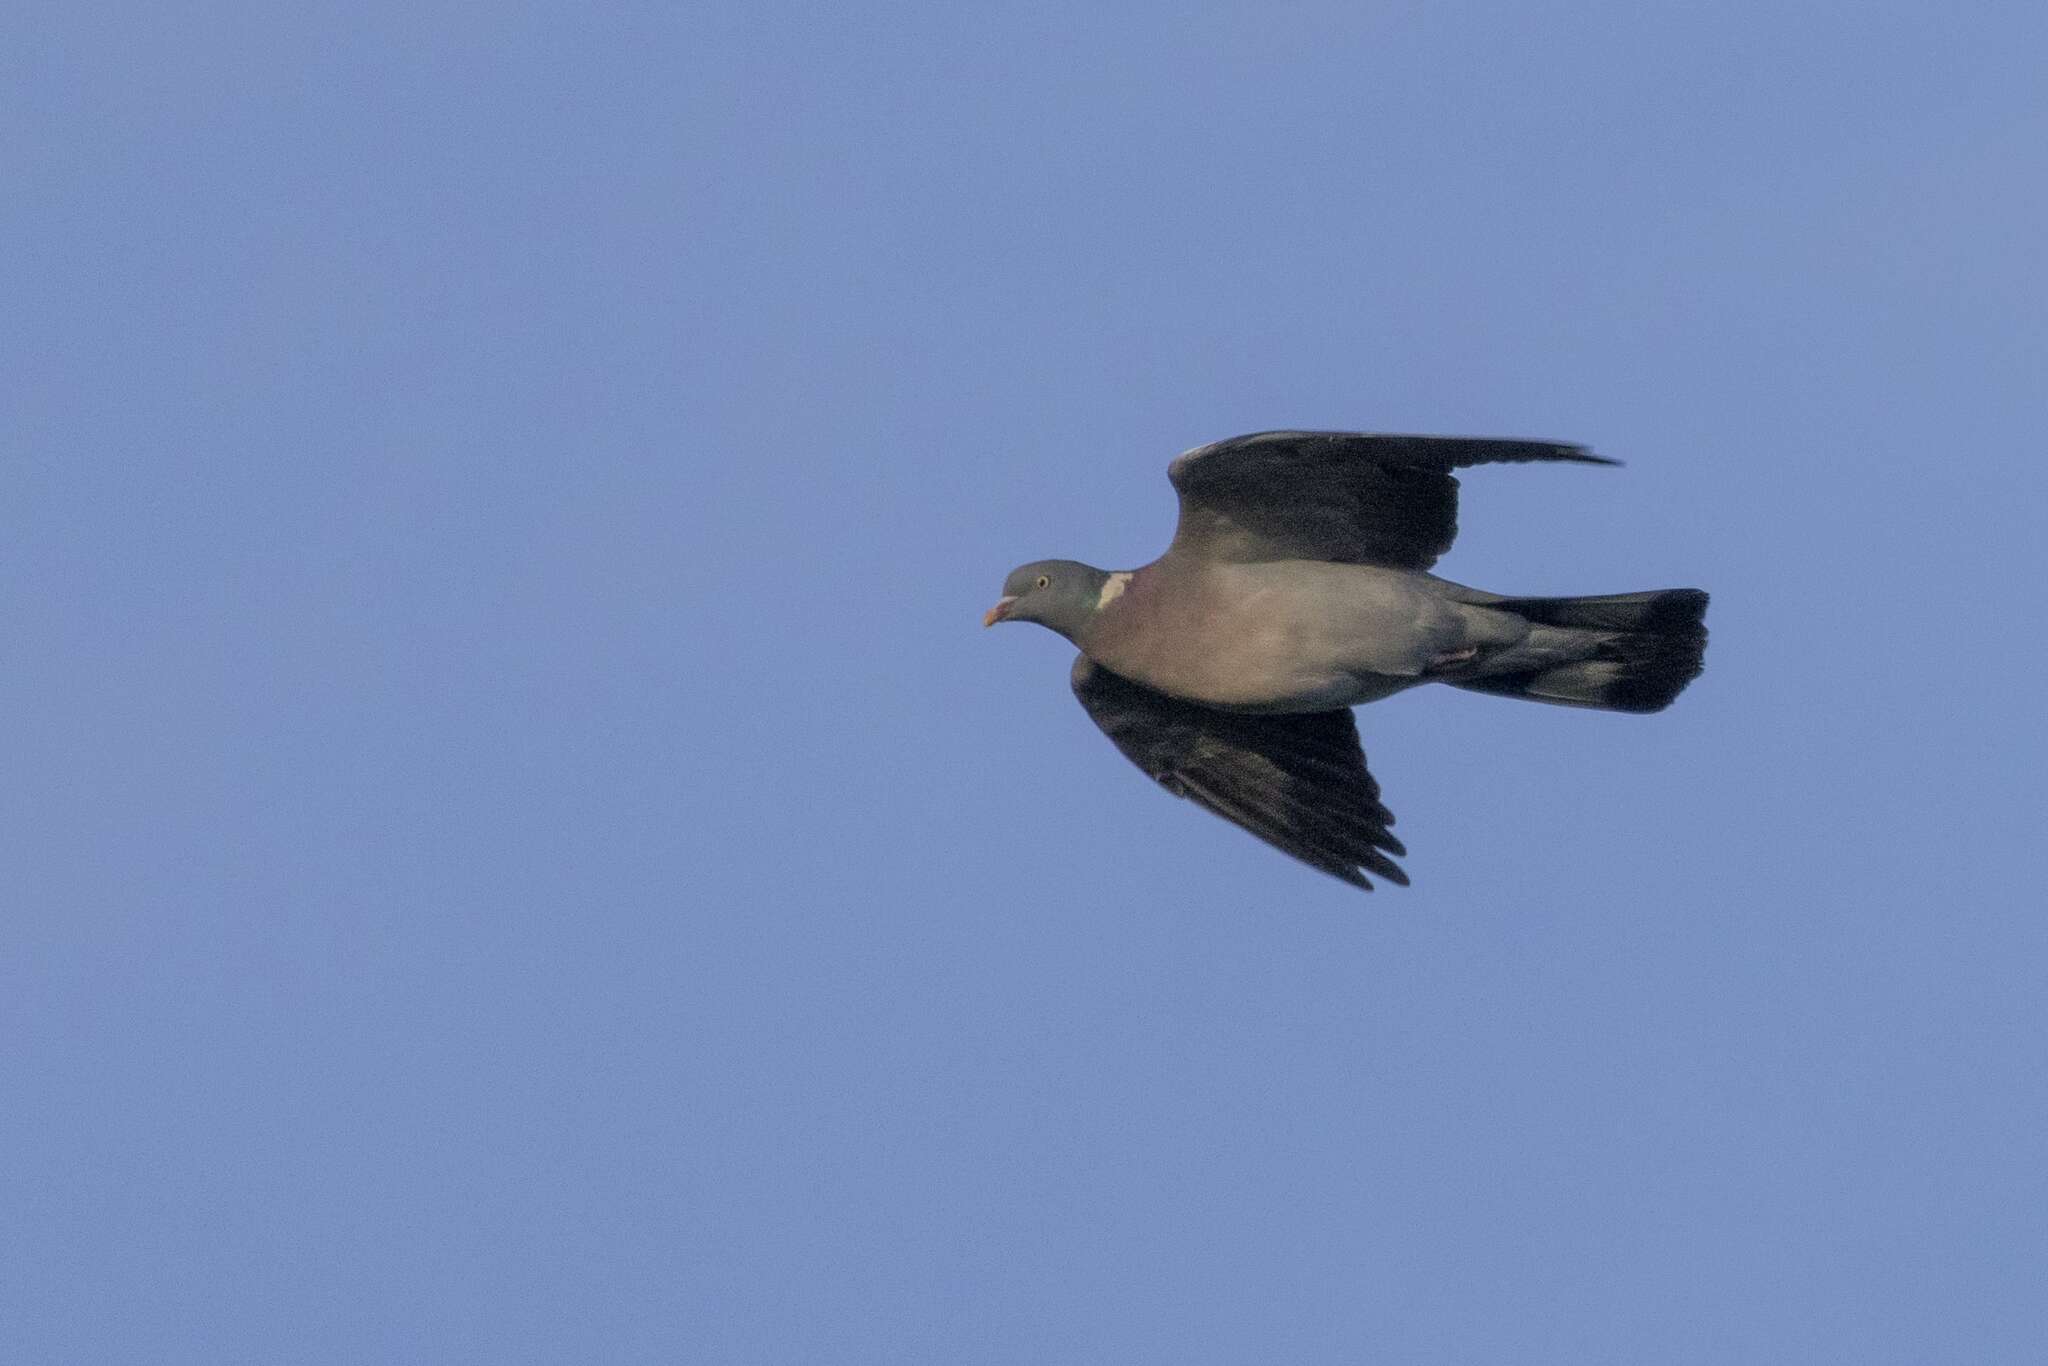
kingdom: Animalia
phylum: Chordata
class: Aves
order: Columbiformes
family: Columbidae
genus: Columba
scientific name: Columba palumbus
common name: Common wood pigeon
